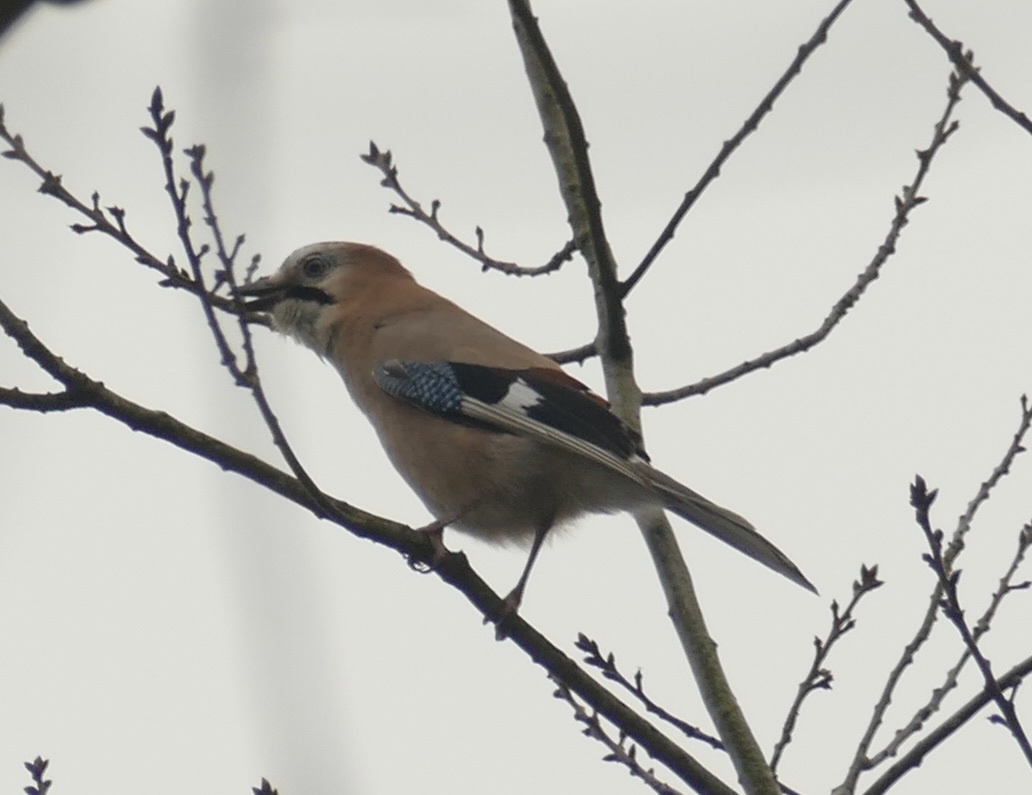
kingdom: Animalia
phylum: Chordata
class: Aves
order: Passeriformes
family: Corvidae
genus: Garrulus
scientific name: Garrulus glandarius
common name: Eurasian jay
